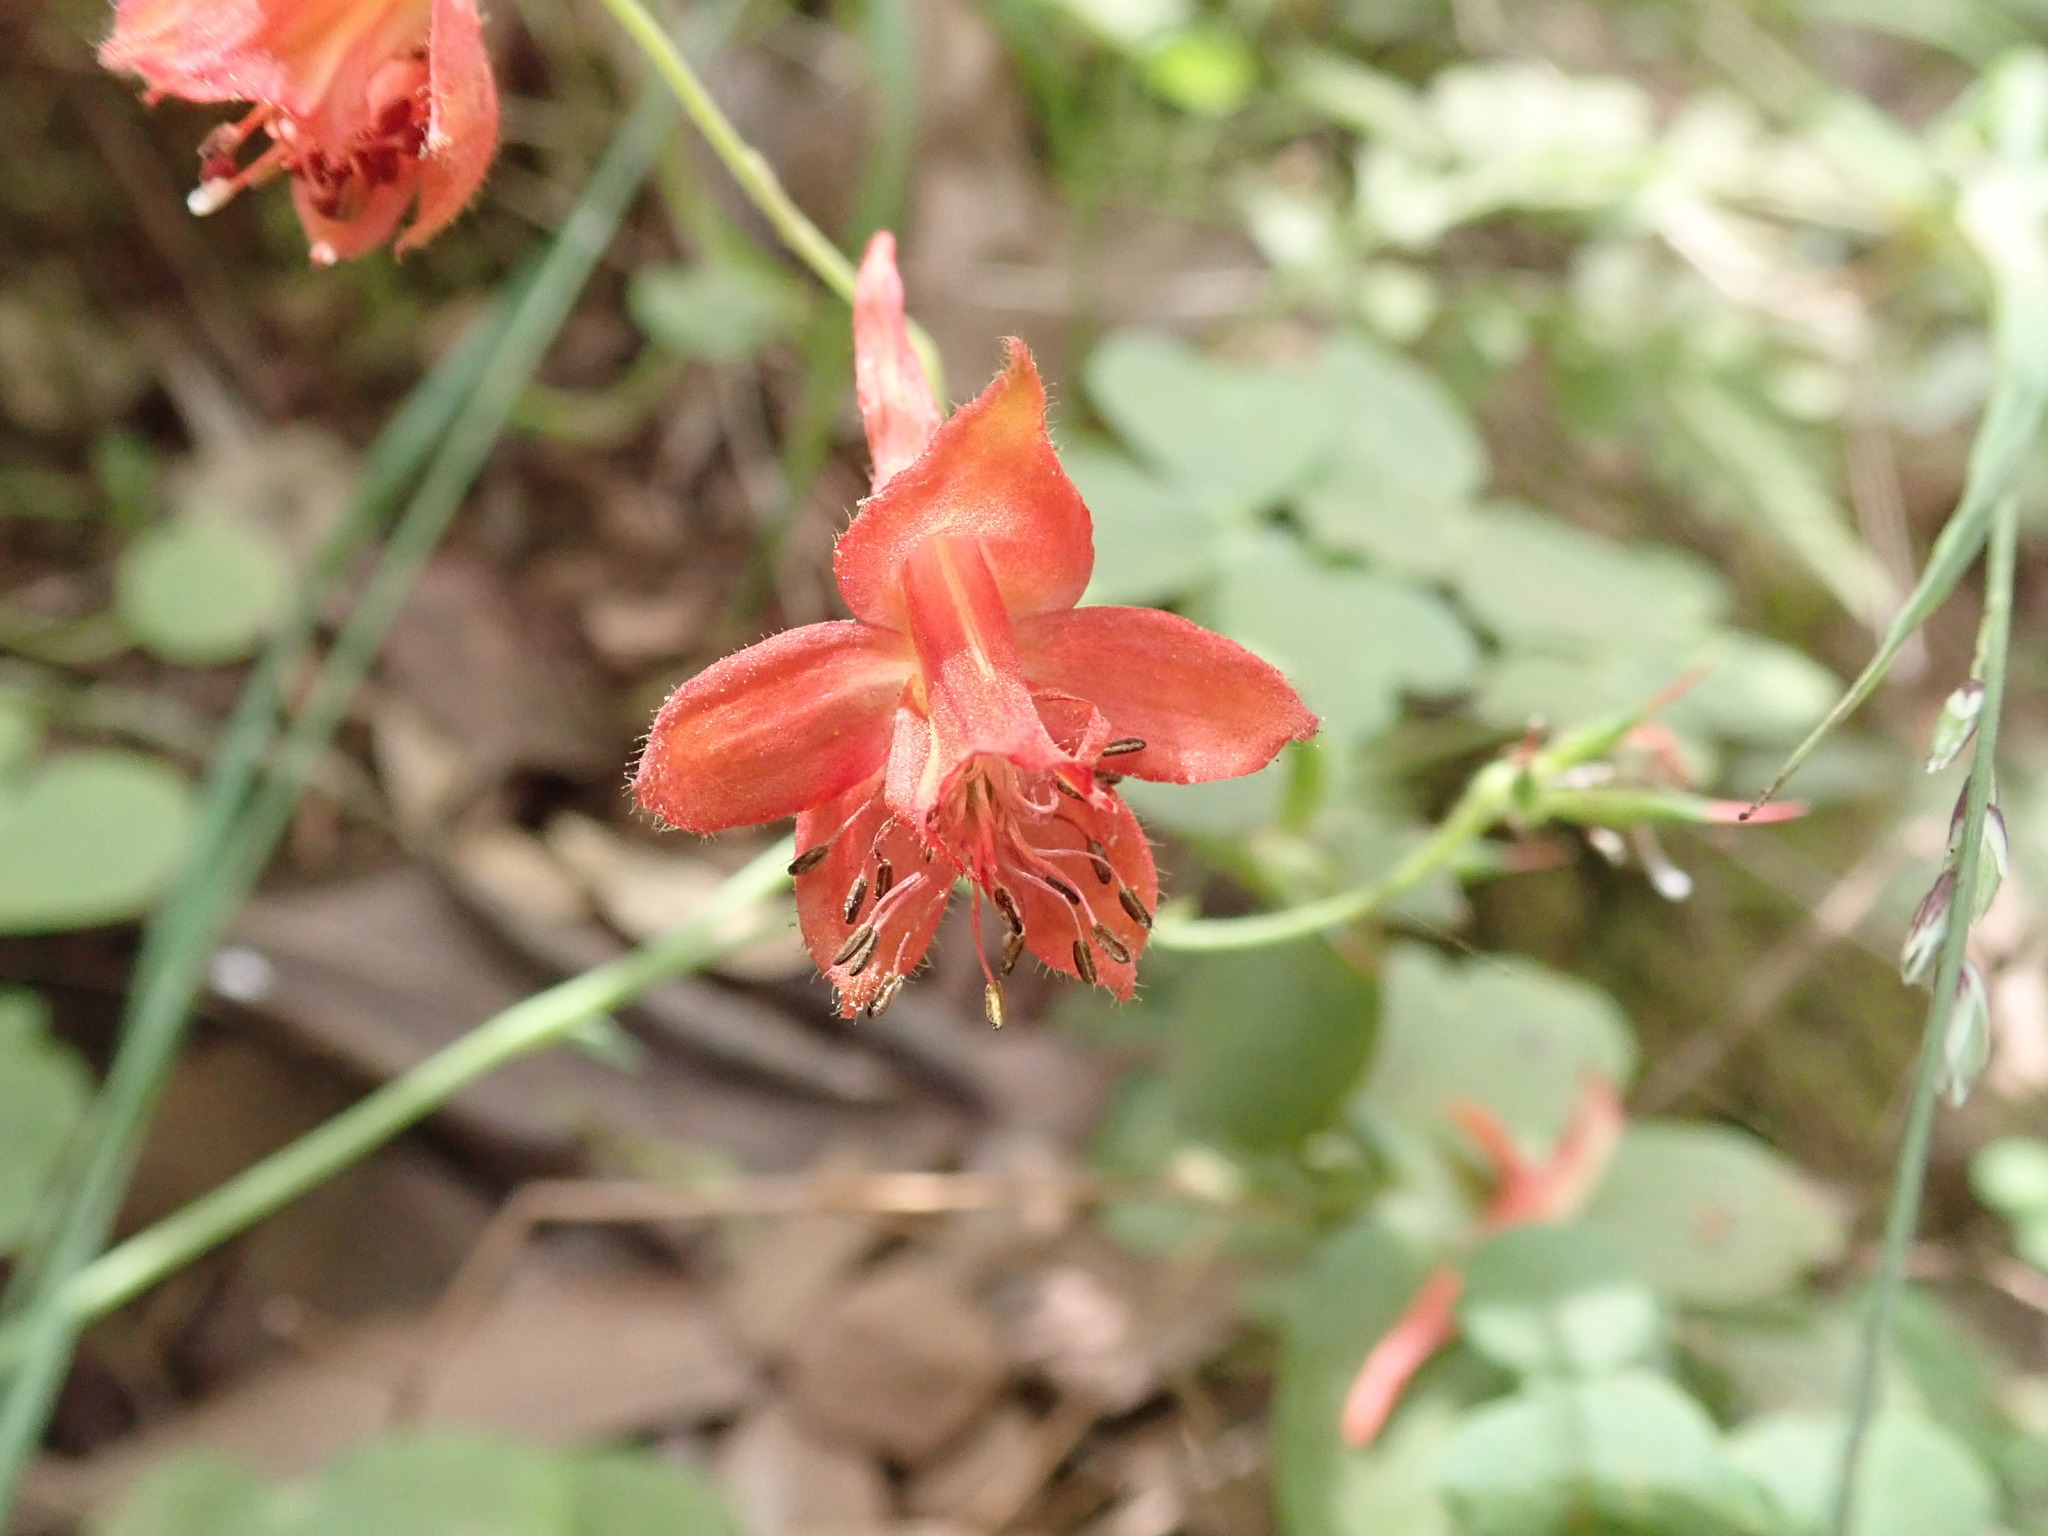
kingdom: Plantae
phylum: Tracheophyta
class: Magnoliopsida
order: Ranunculales
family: Ranunculaceae
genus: Delphinium
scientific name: Delphinium nudicaule
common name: Red larkspur
